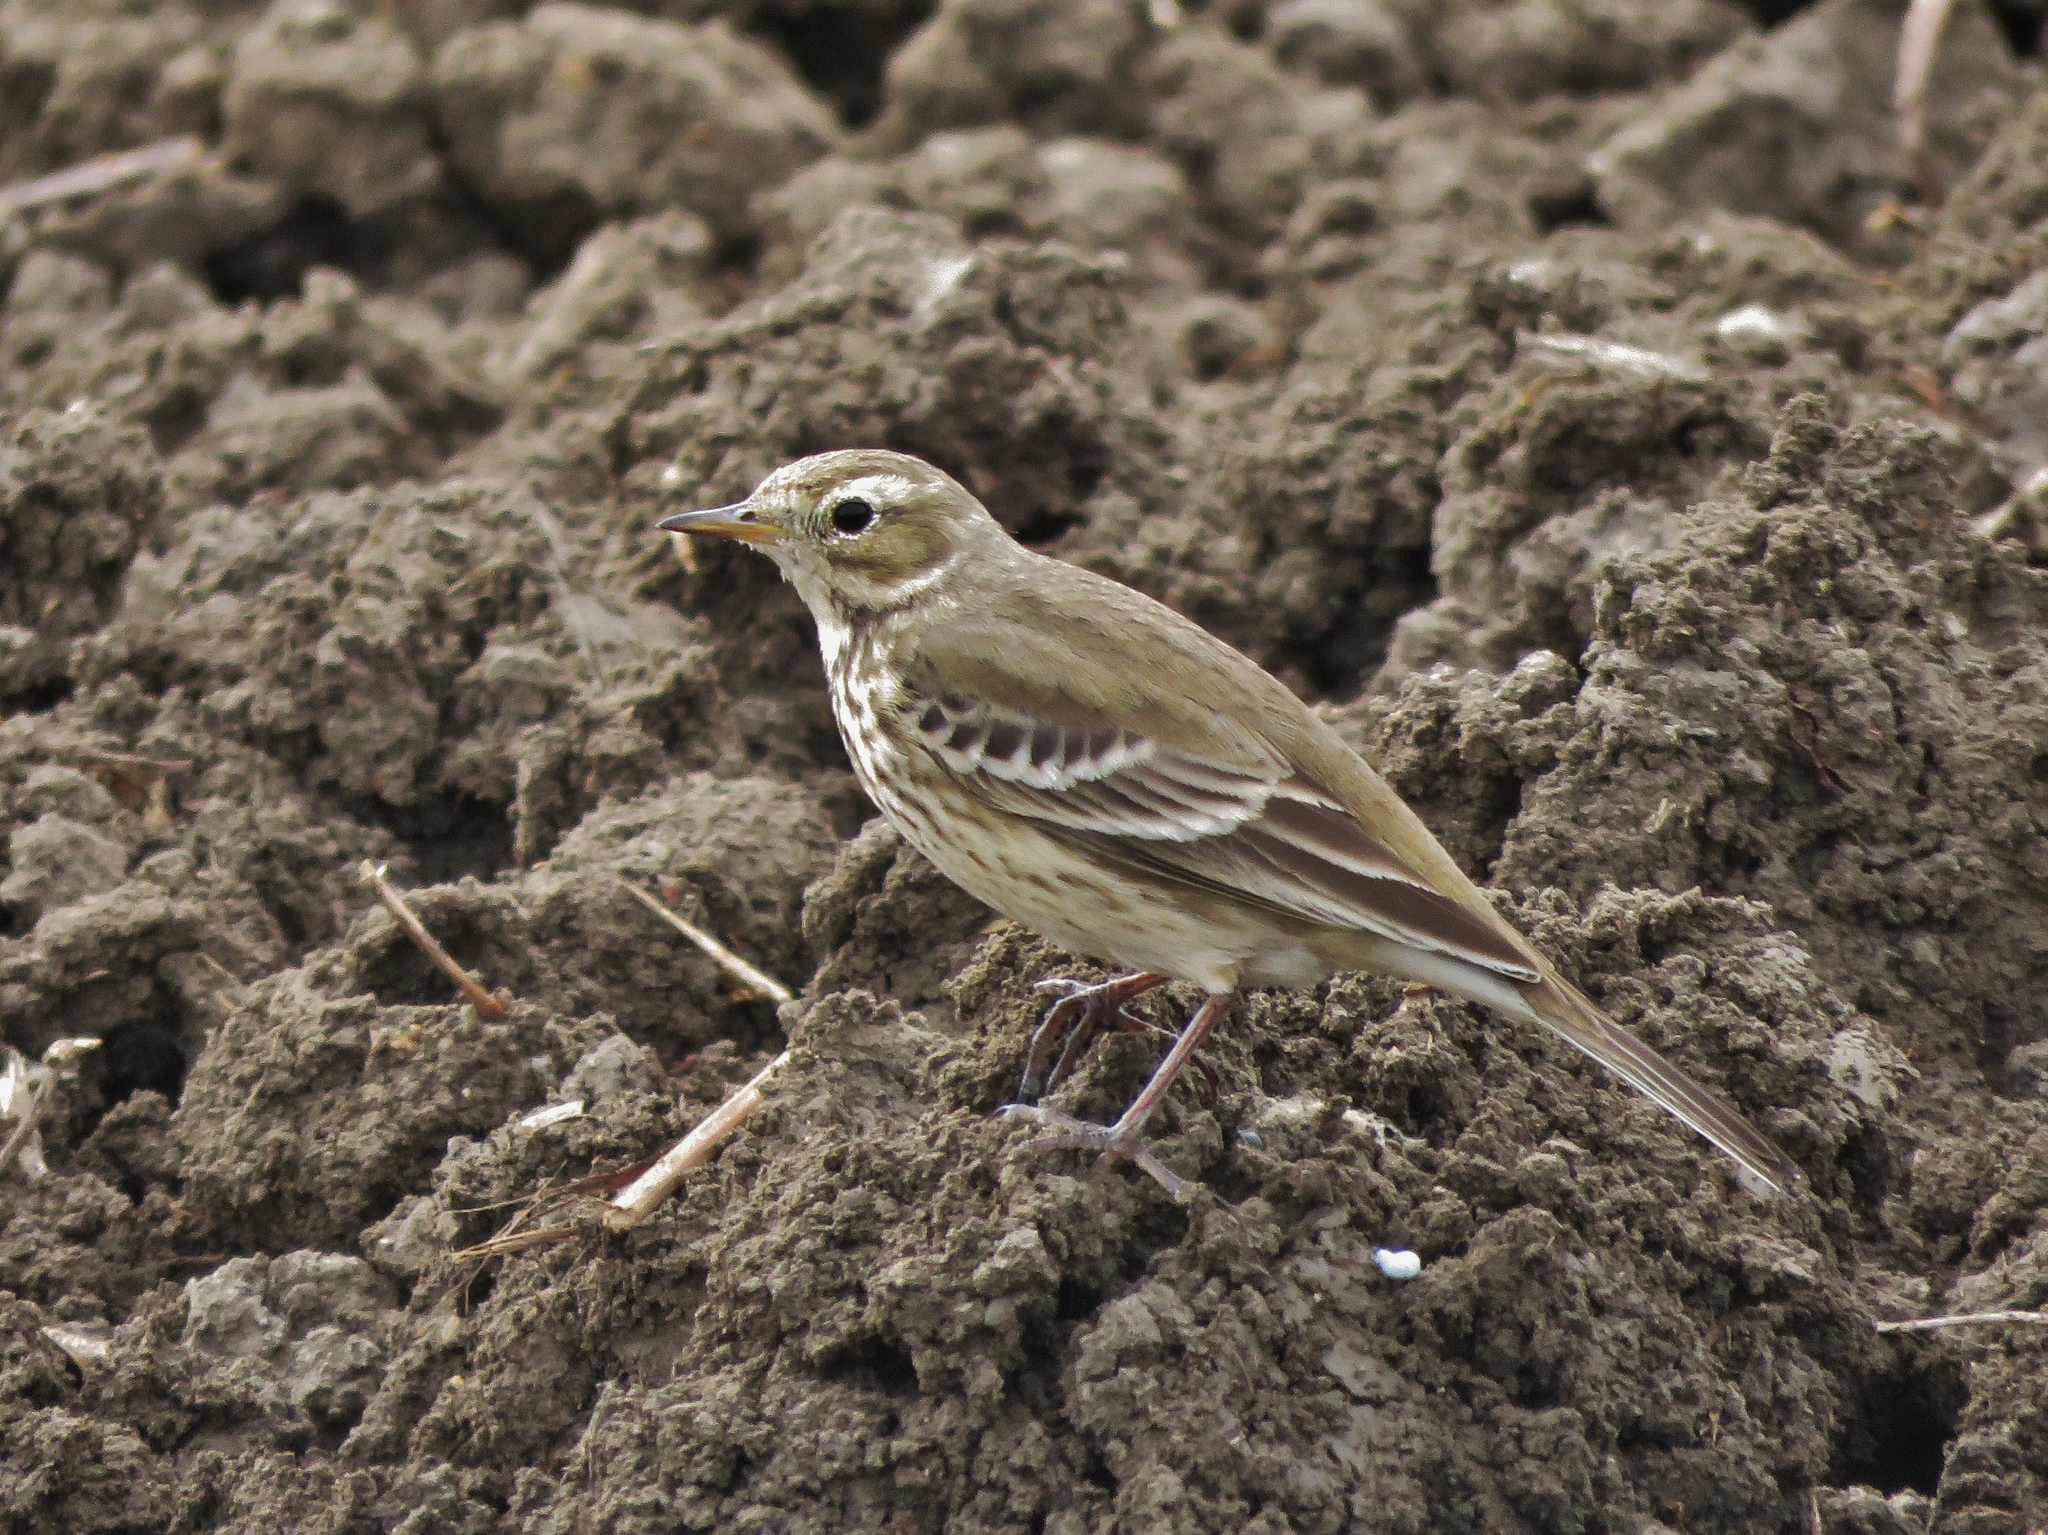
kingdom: Animalia
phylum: Chordata
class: Aves
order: Passeriformes
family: Motacillidae
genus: Anthus
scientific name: Anthus rubescens
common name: Buff-bellied pipit
